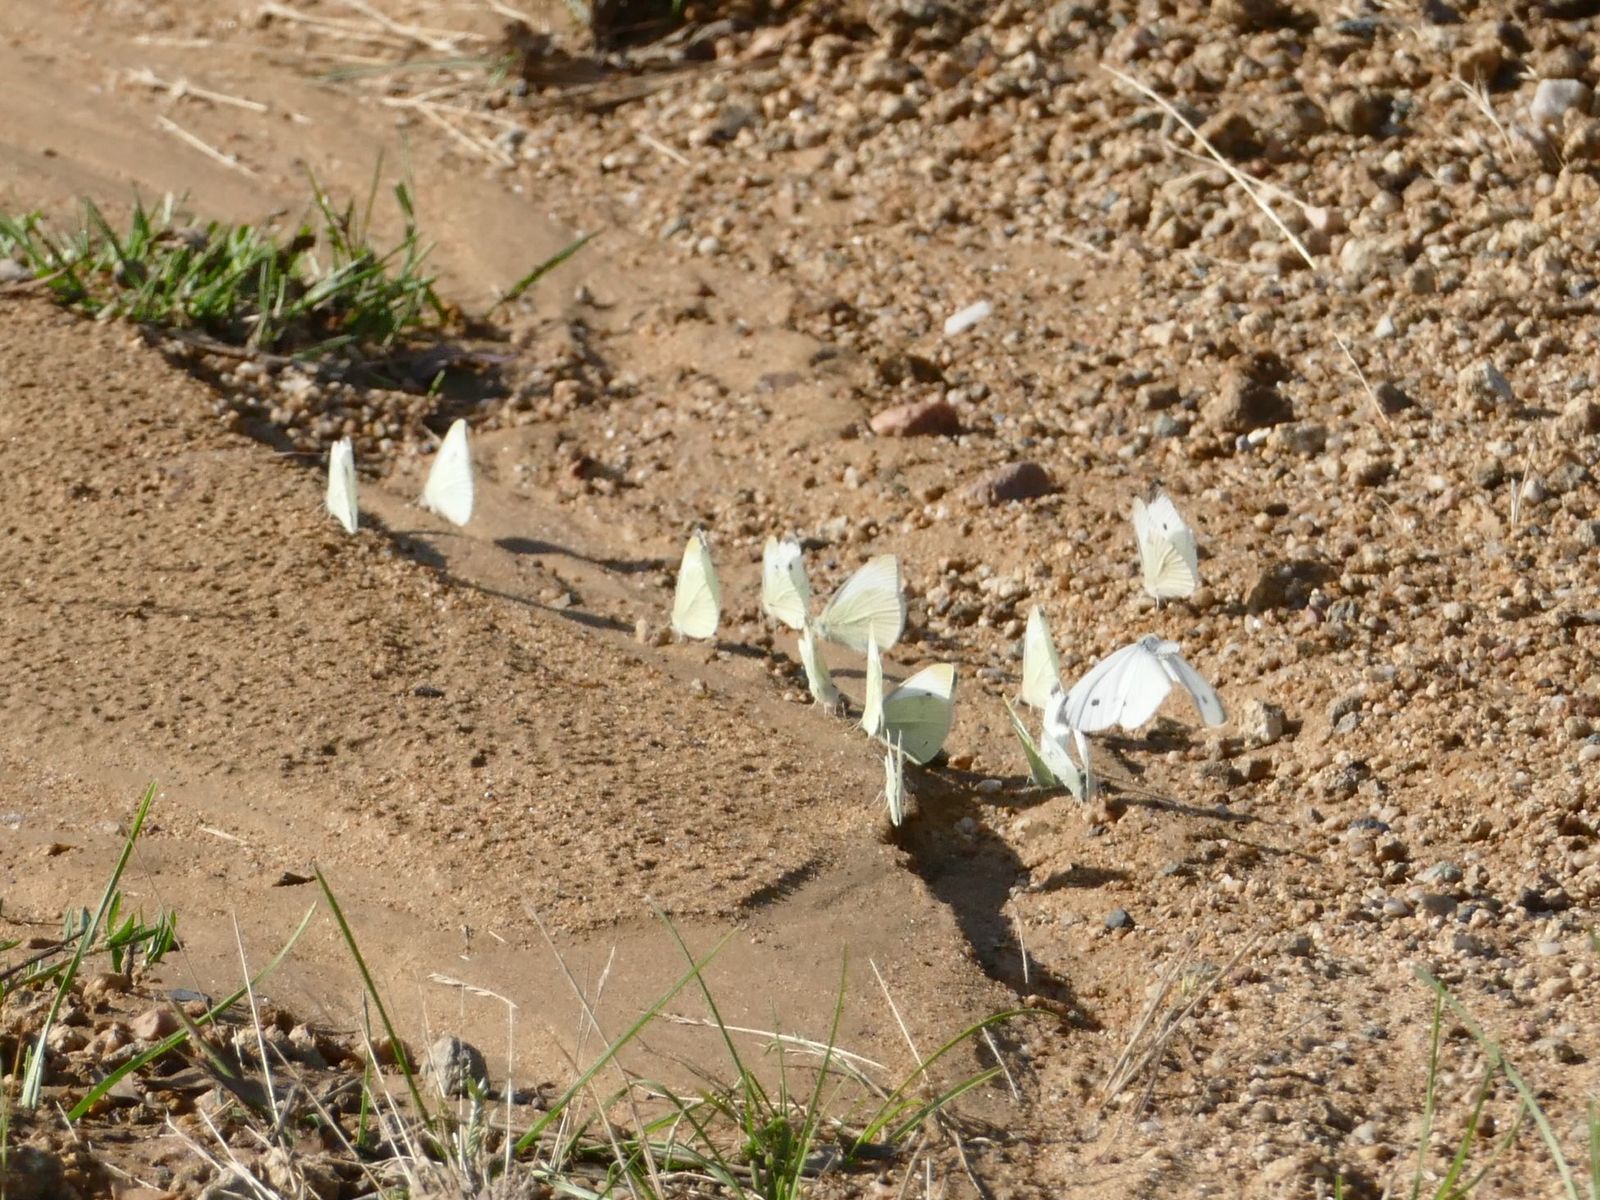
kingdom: Animalia
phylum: Arthropoda
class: Insecta
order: Lepidoptera
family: Pieridae
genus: Pieris
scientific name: Pieris rapae
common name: Small white
